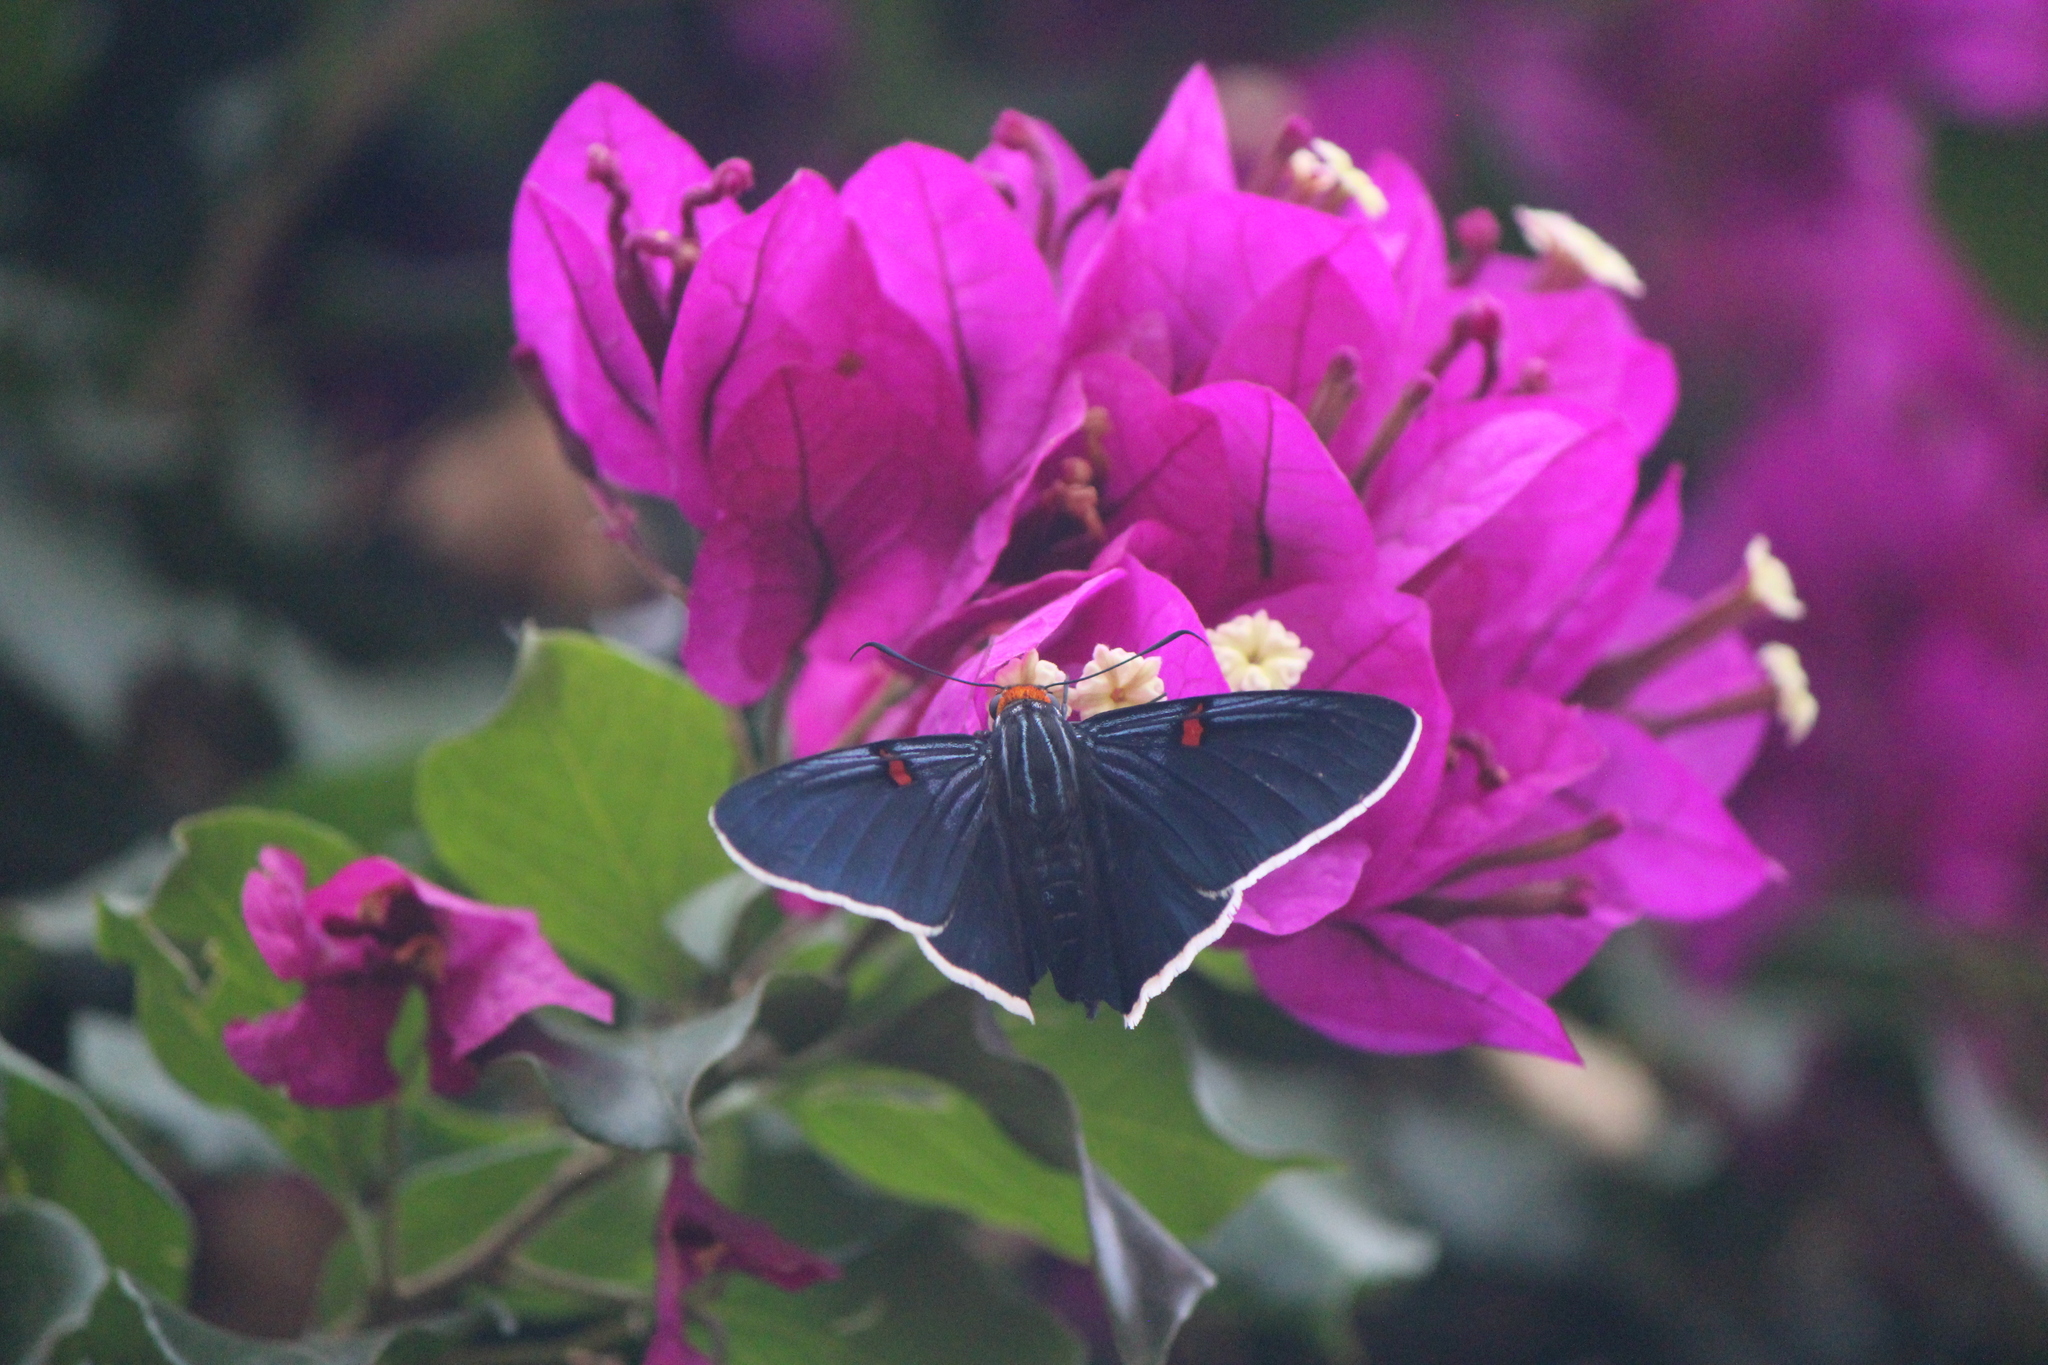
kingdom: Animalia
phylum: Arthropoda
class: Insecta
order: Lepidoptera
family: Hesperiidae
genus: Phocides
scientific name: Phocides lilea
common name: Guava skipper
